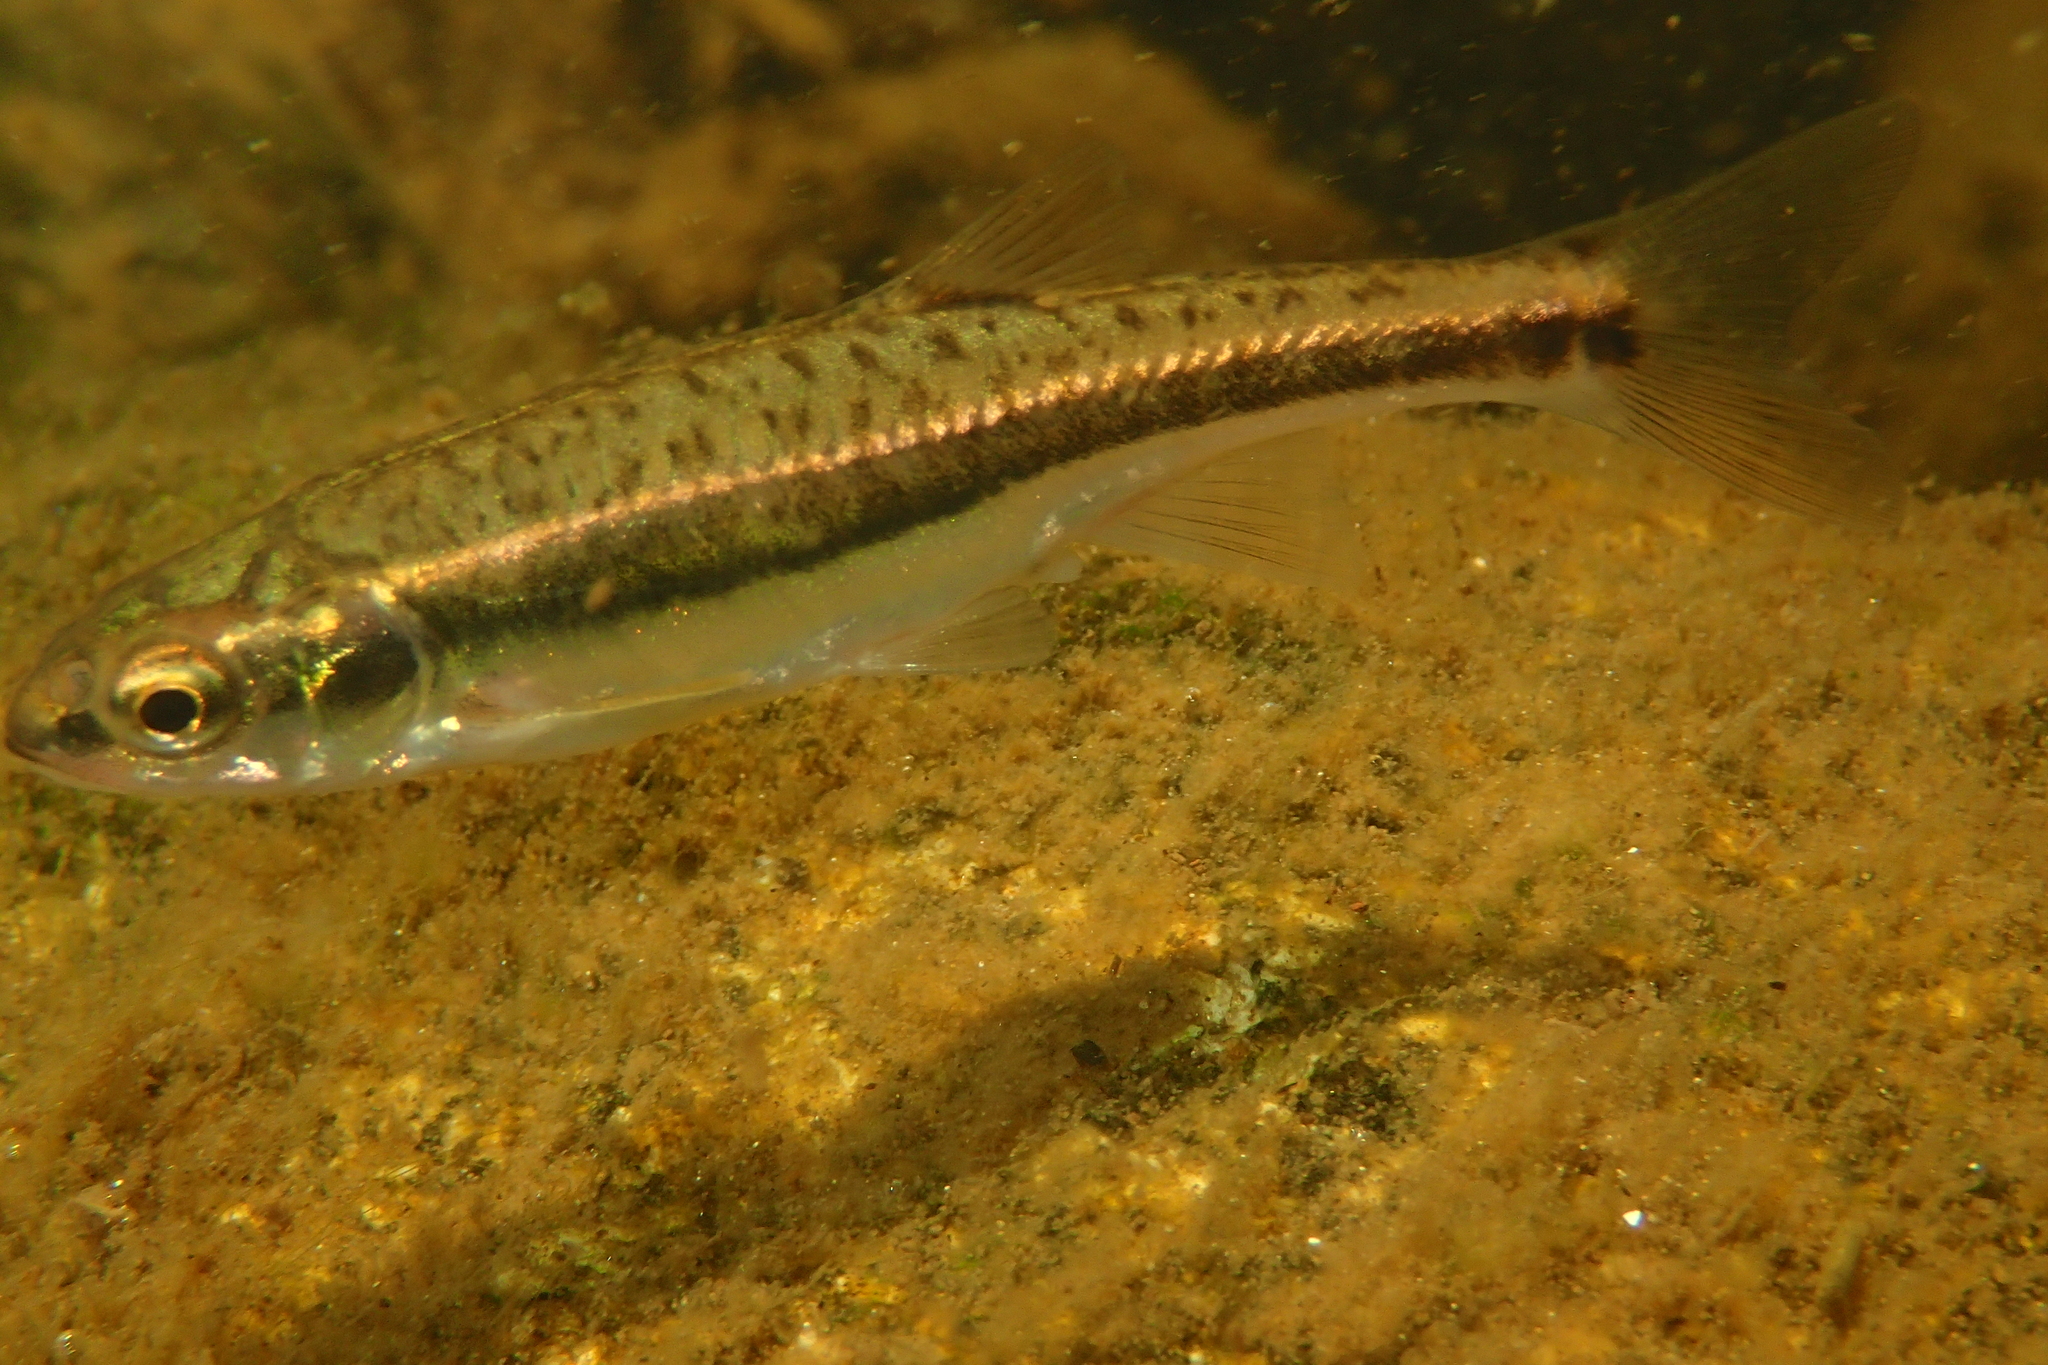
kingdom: Animalia
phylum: Chordata
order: Cypriniformes
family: Cyprinidae
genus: Phoxinus
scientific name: Phoxinus dragarum
